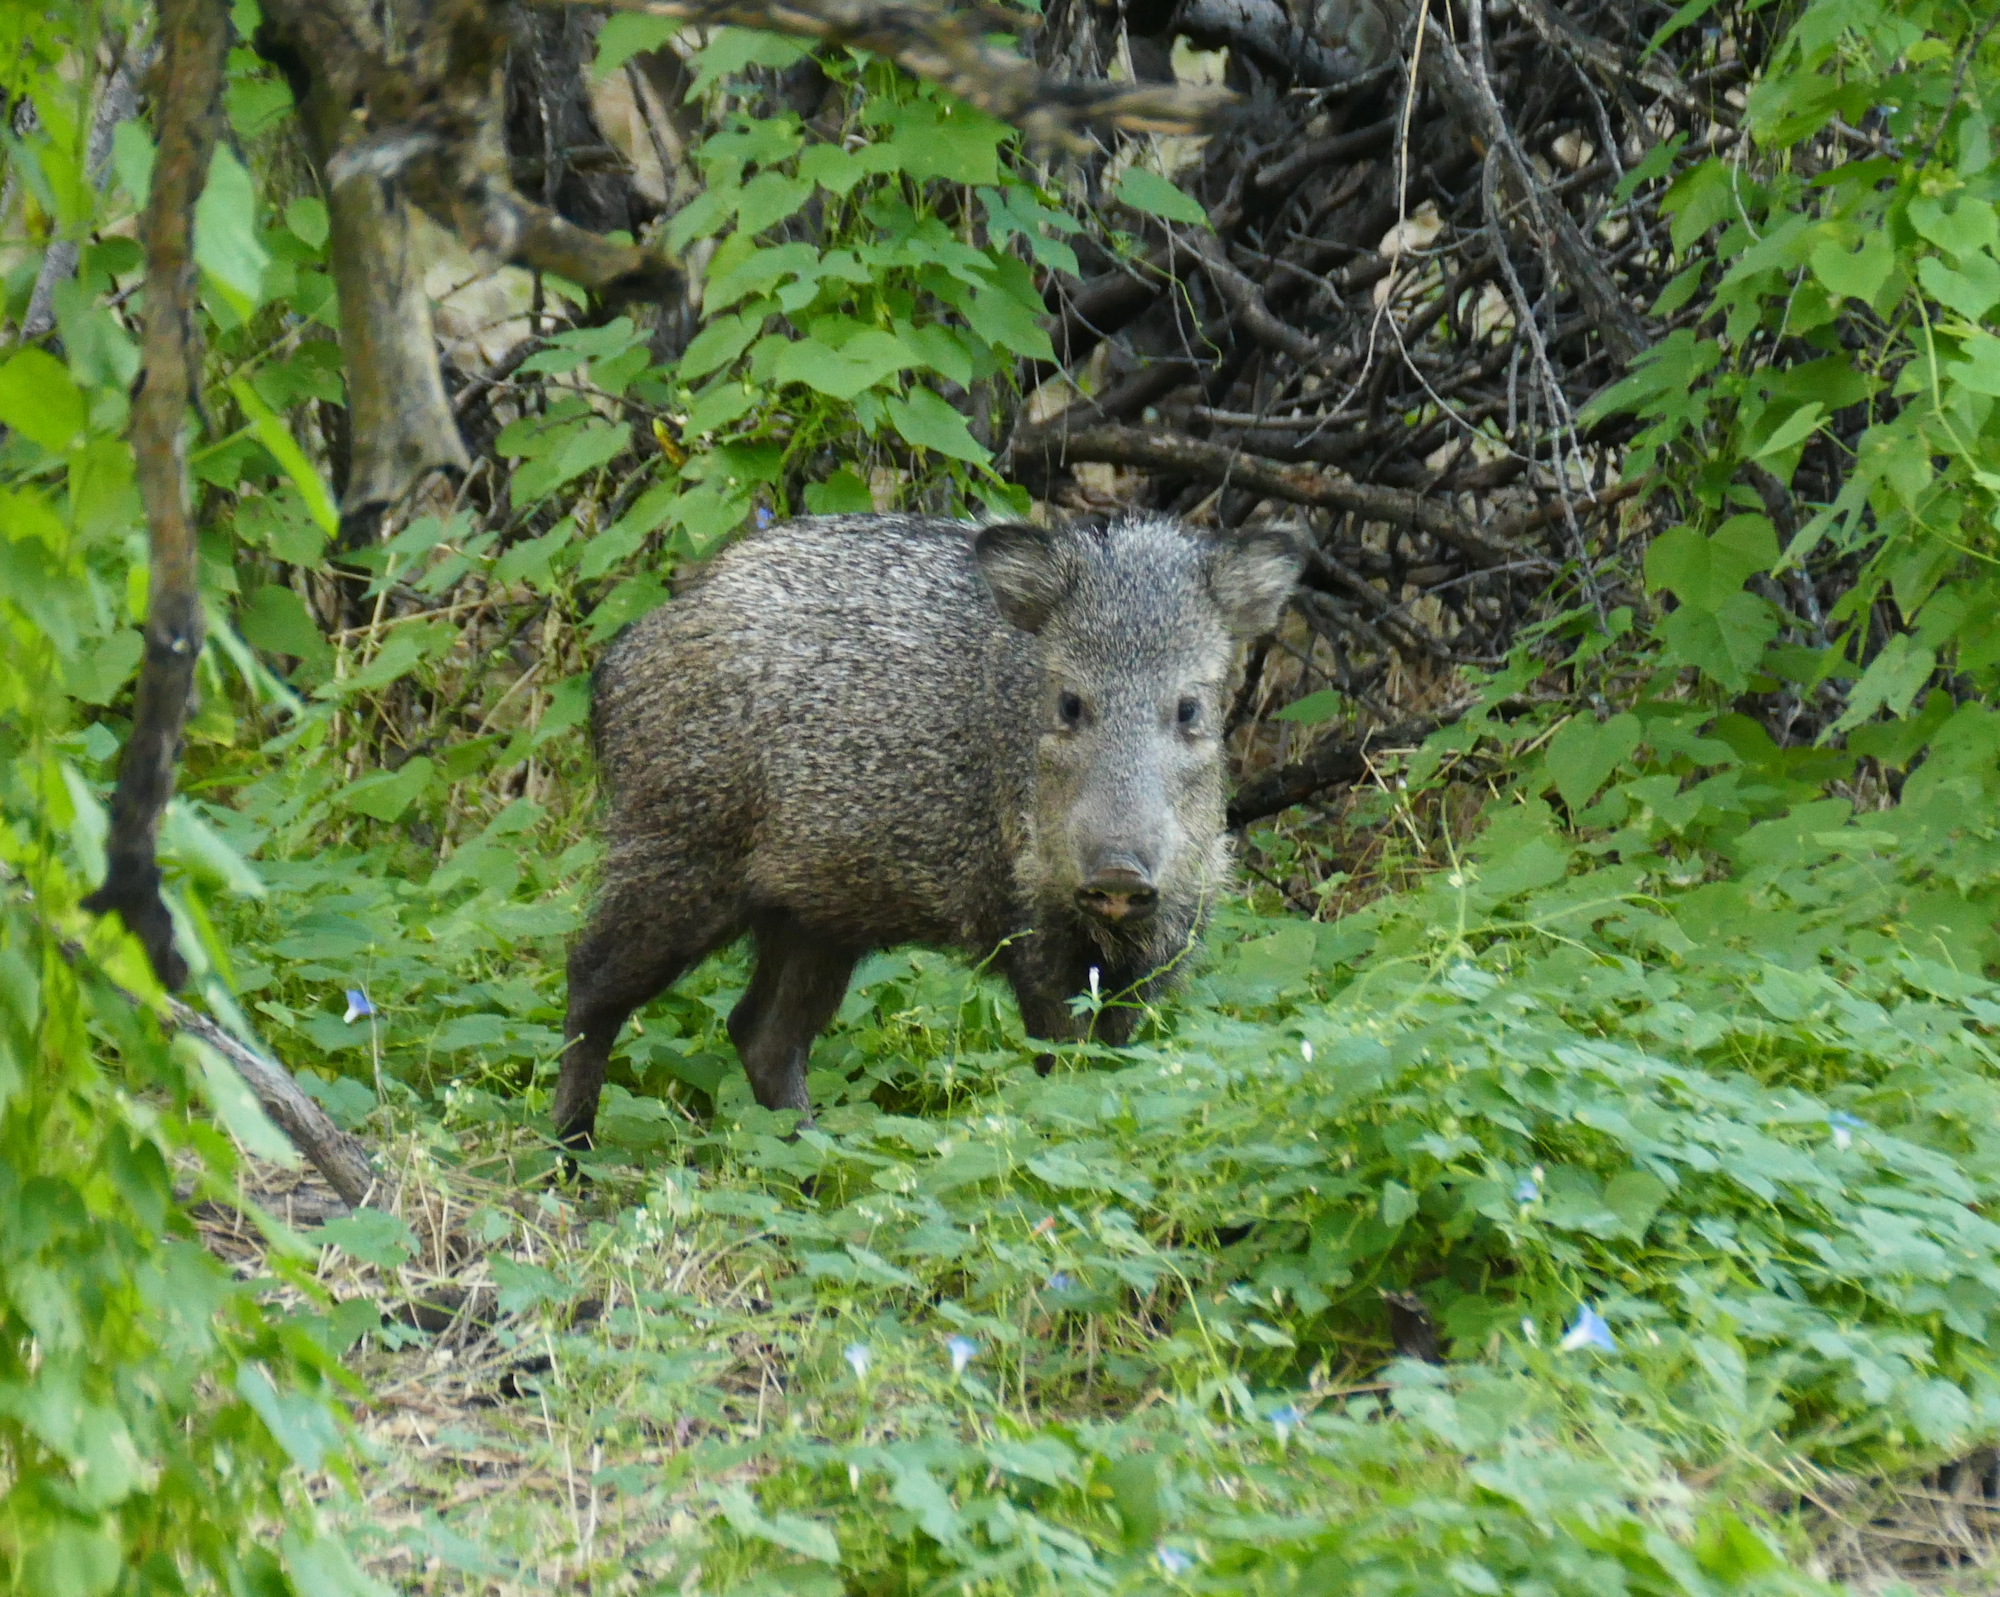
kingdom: Animalia
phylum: Chordata
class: Mammalia
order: Artiodactyla
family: Tayassuidae
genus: Pecari
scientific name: Pecari tajacu
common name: Collared peccary
